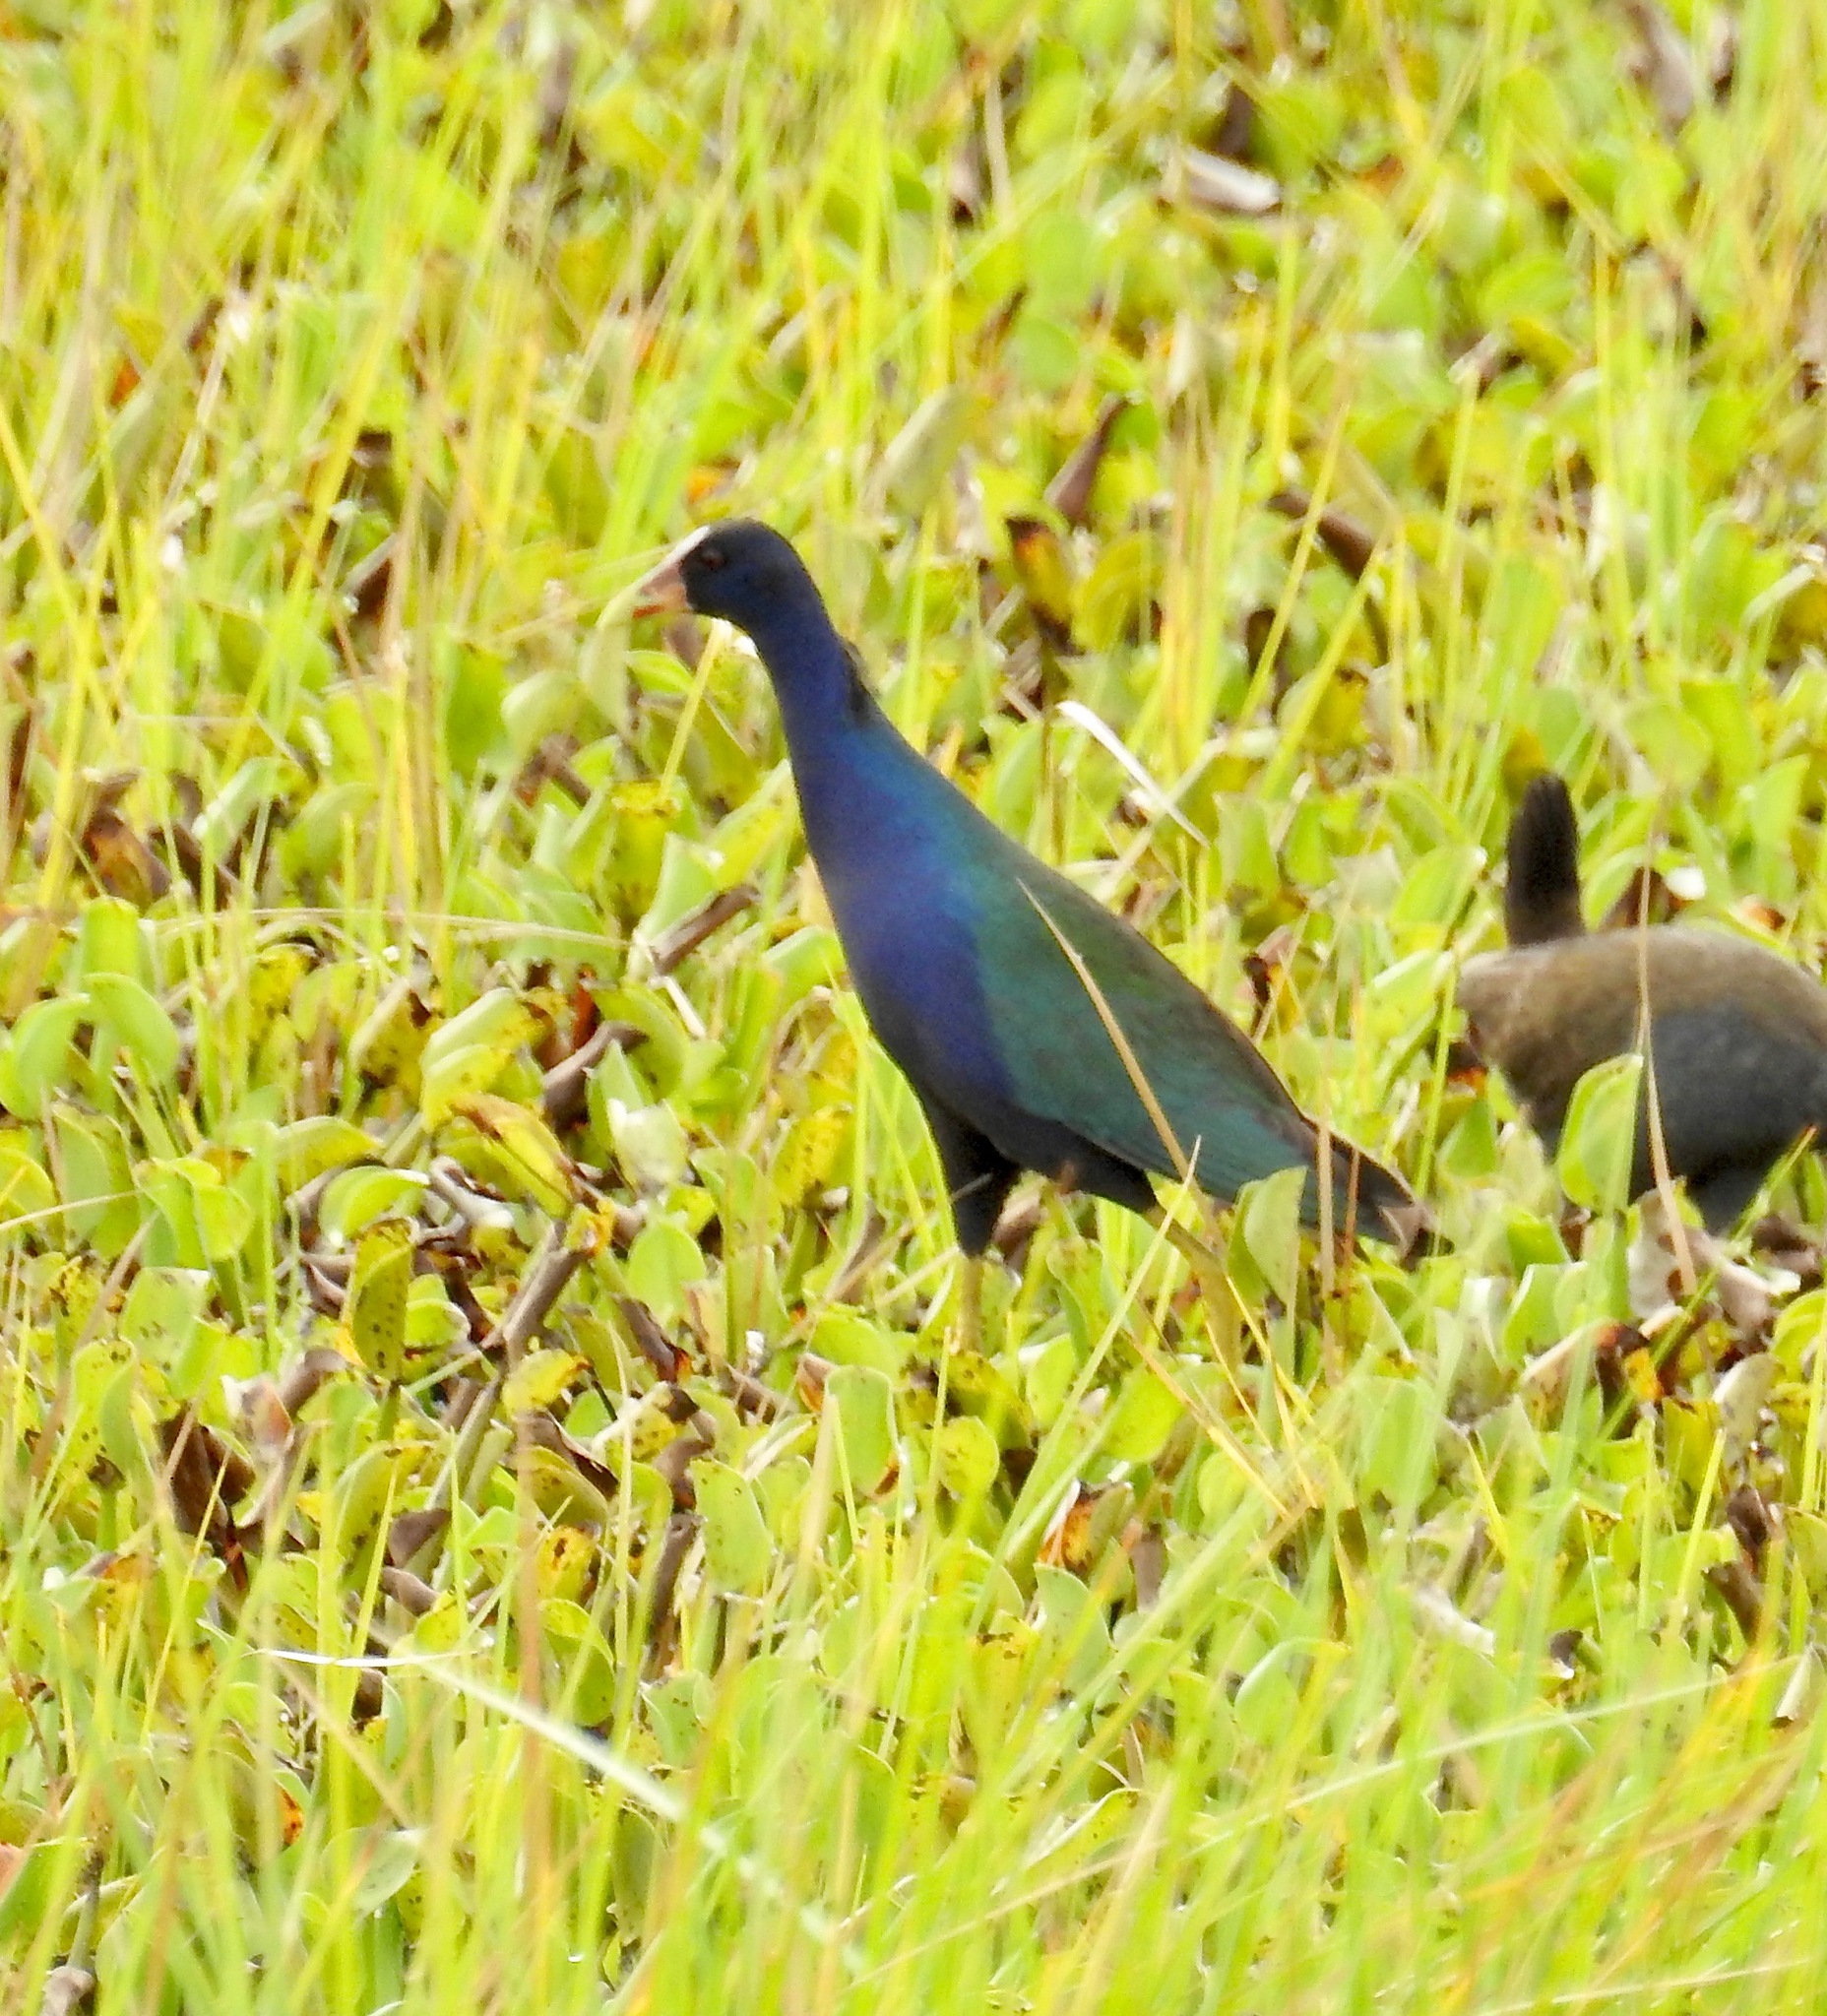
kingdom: Animalia
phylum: Chordata
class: Aves
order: Gruiformes
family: Rallidae
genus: Porphyrio
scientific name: Porphyrio martinica
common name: Purple gallinule
